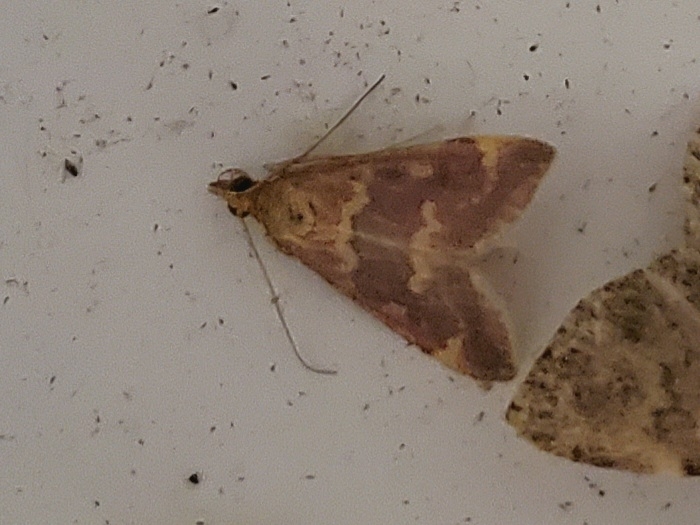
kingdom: Animalia
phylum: Arthropoda
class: Insecta
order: Lepidoptera
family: Crambidae
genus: Pyrausta
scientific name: Pyrausta signatalis
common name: Raspberry pyrausta moth
